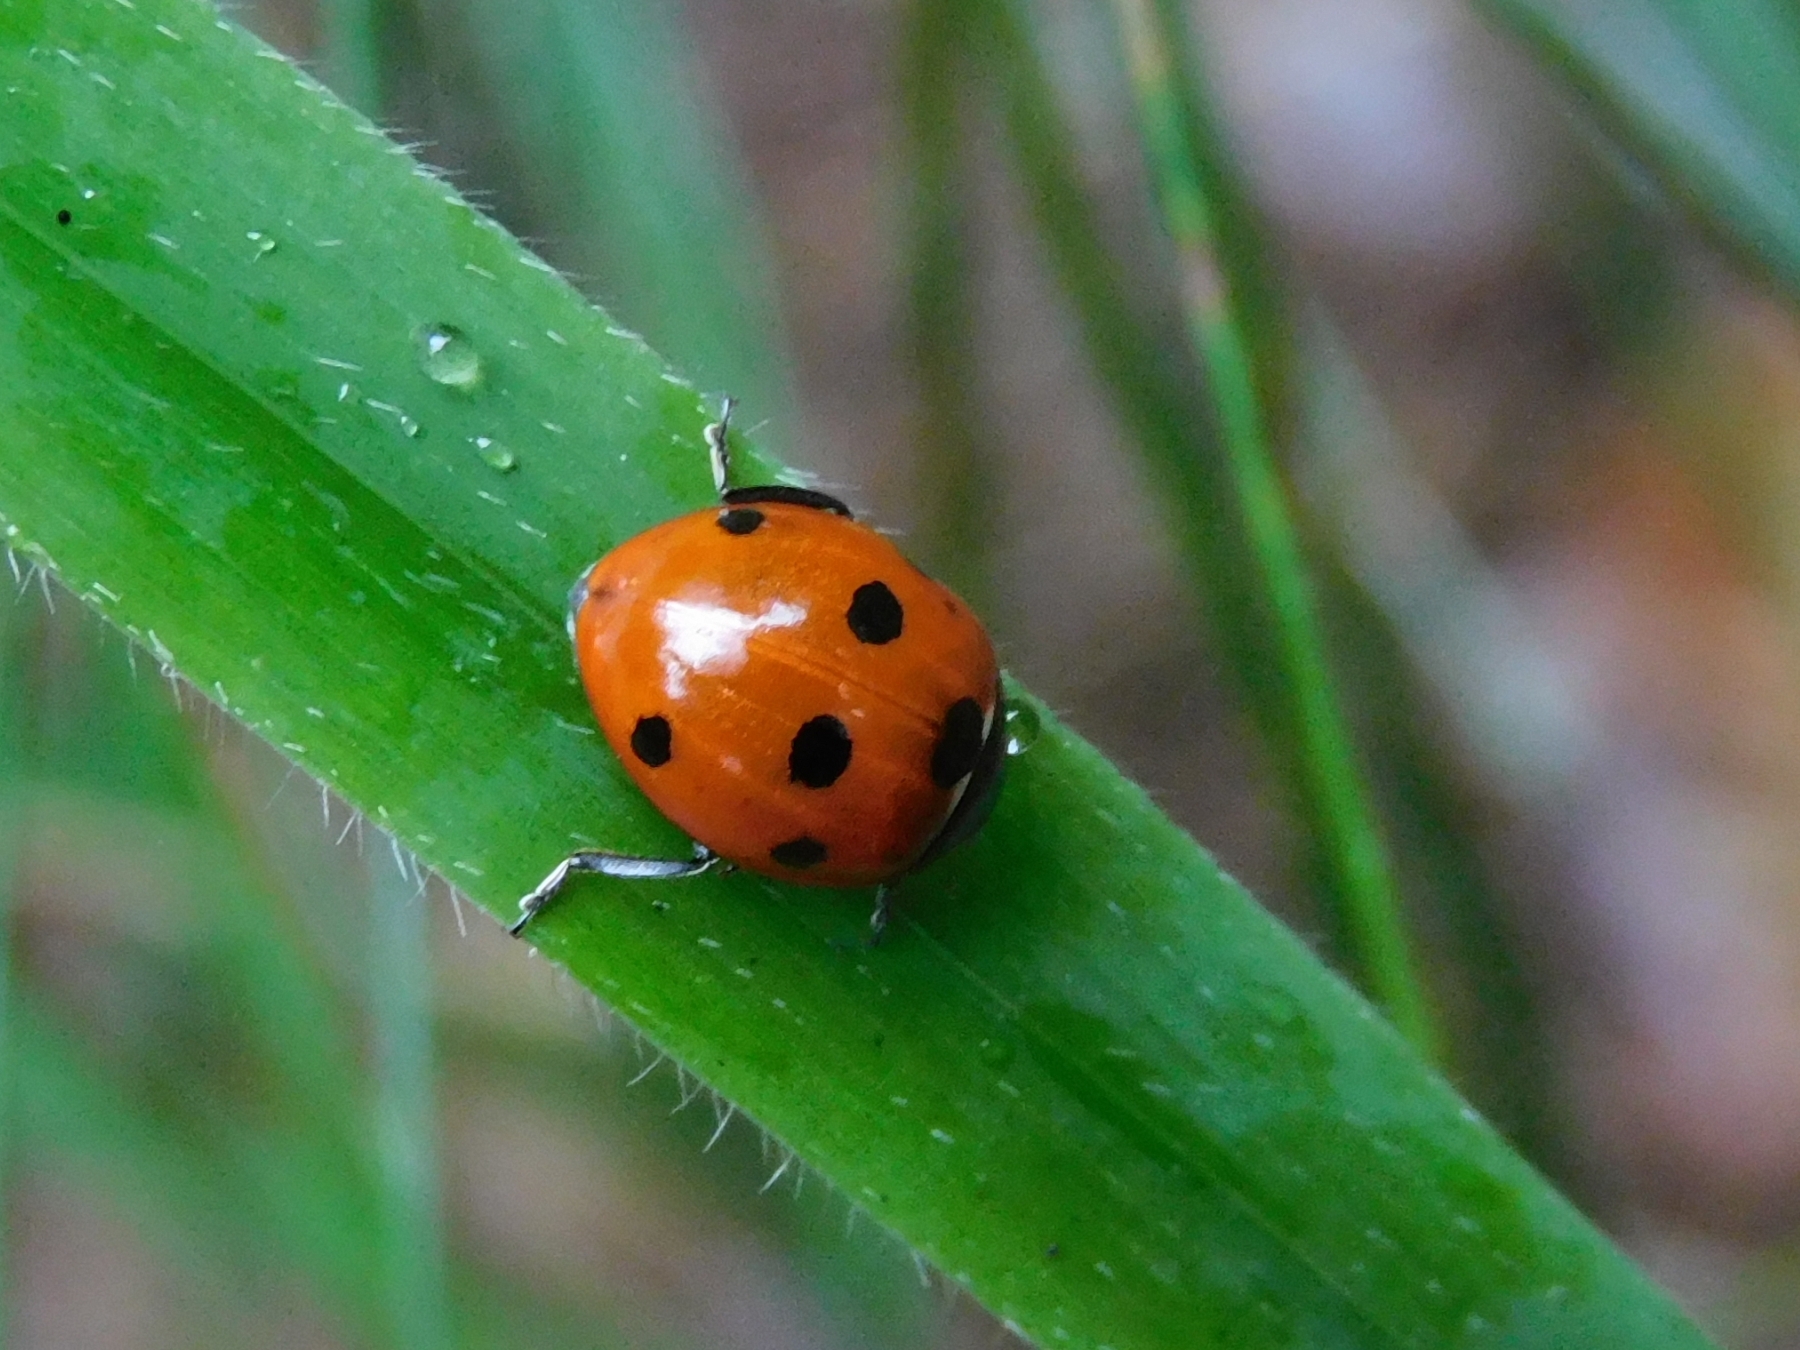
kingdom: Animalia
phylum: Arthropoda
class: Insecta
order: Coleoptera
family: Coccinellidae
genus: Coccinella
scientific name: Coccinella septempunctata
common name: Sevenspotted lady beetle
